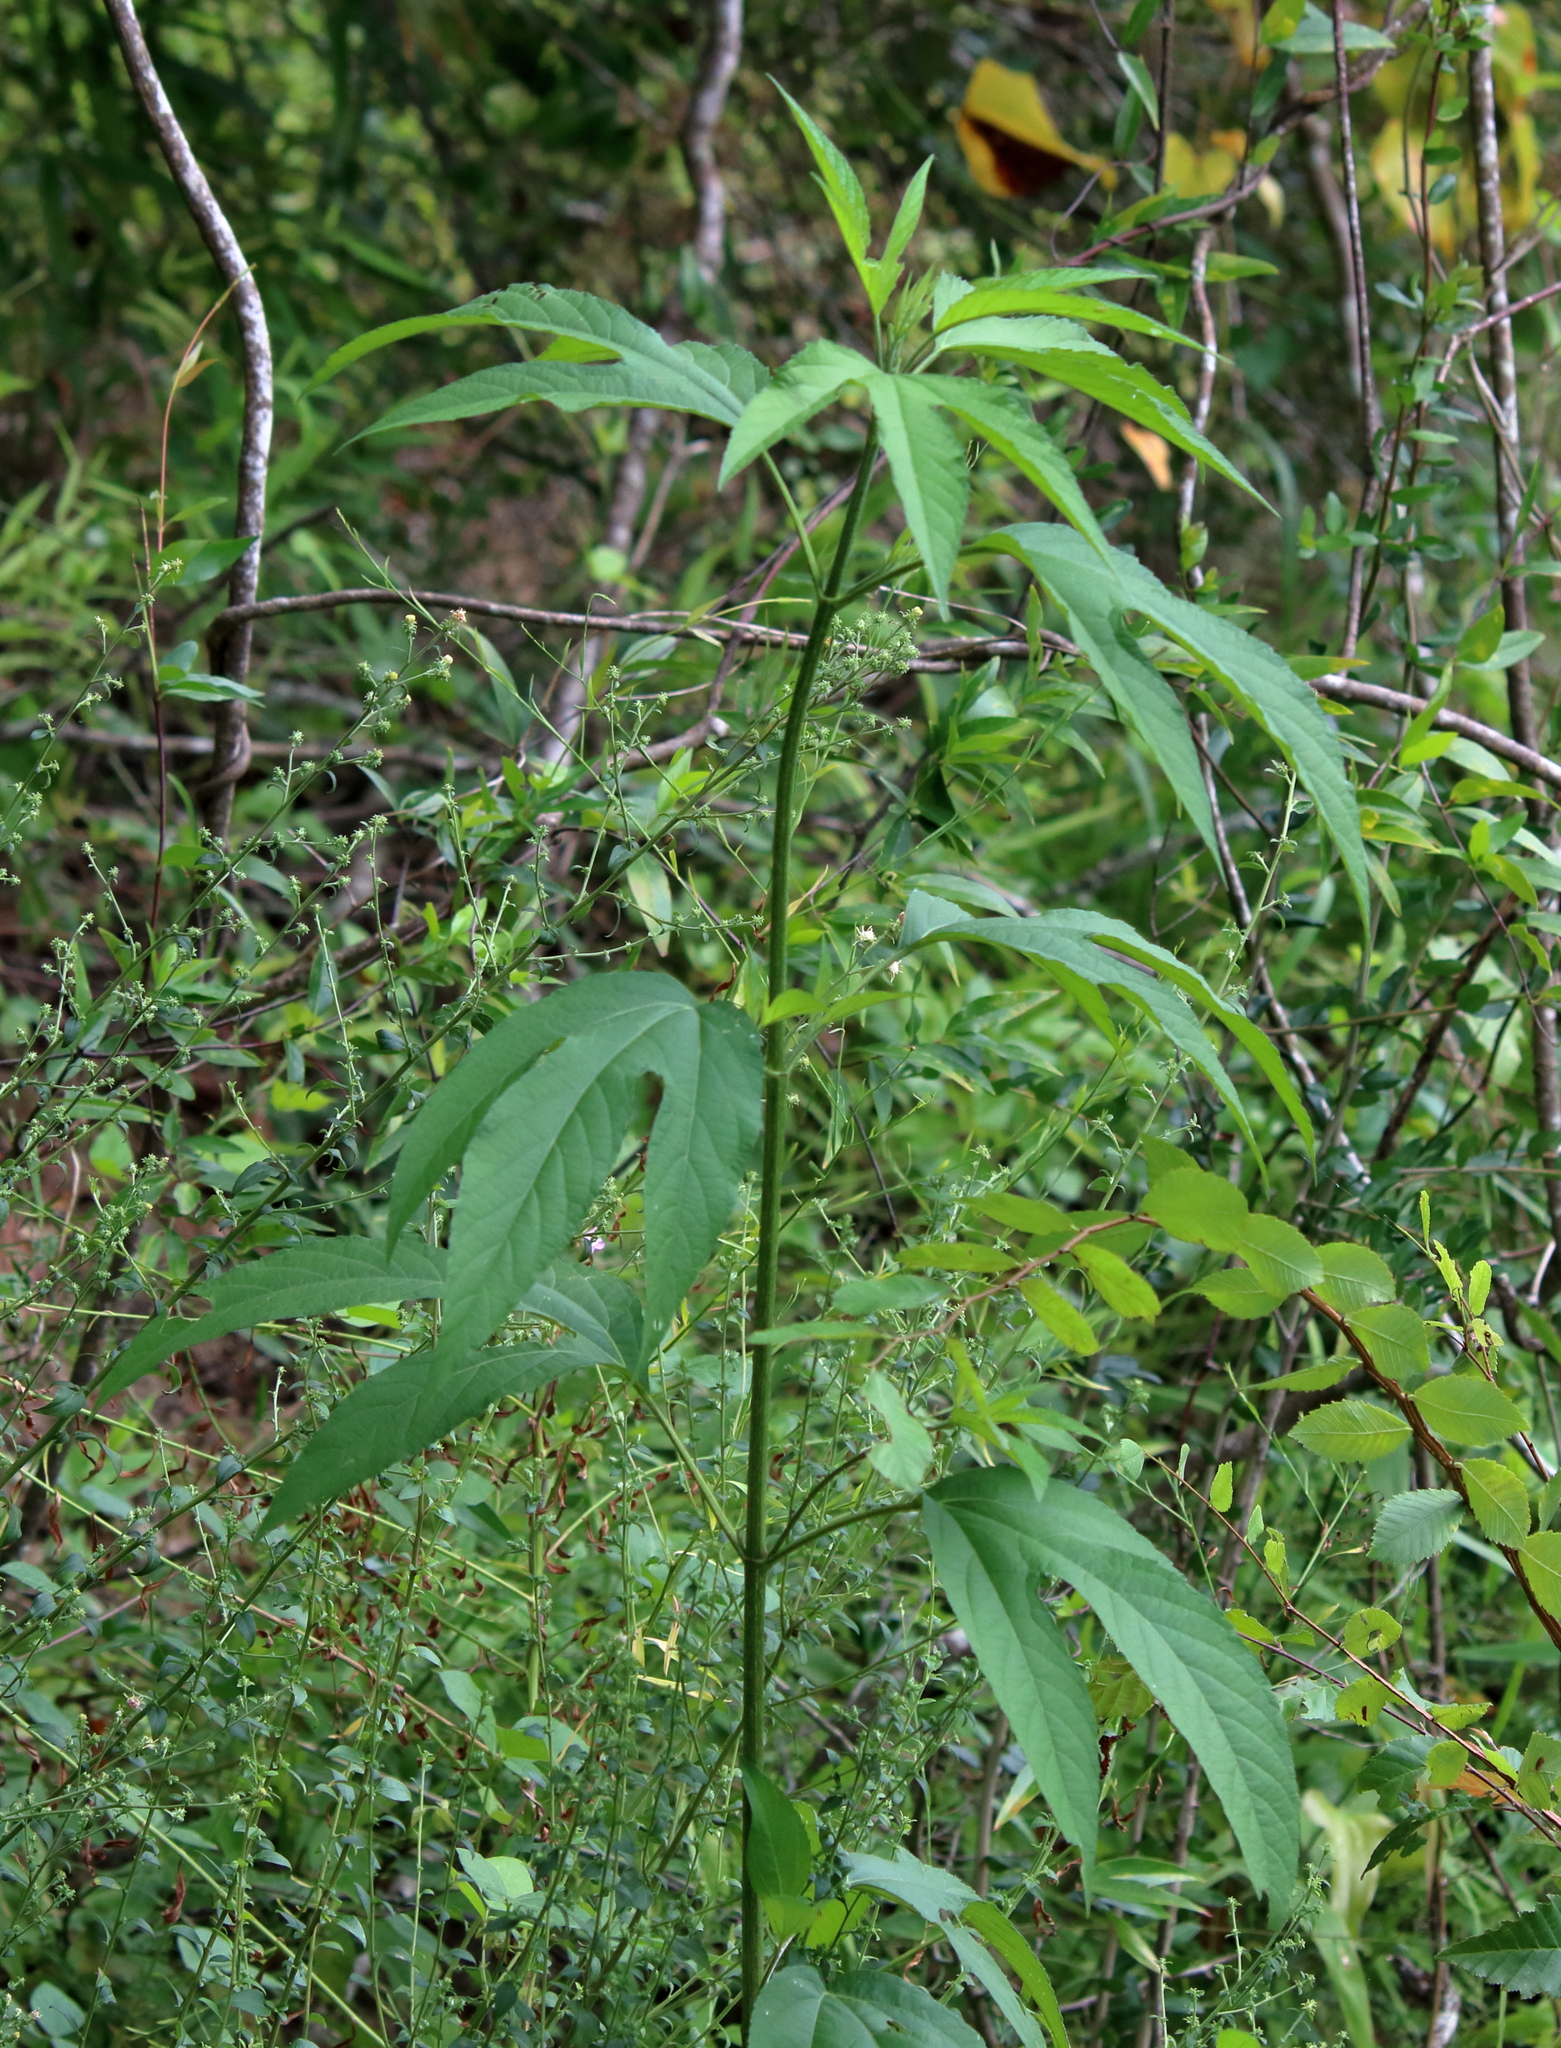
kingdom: Plantae
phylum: Tracheophyta
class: Magnoliopsida
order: Asterales
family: Asteraceae
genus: Ambrosia
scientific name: Ambrosia trifida
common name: Giant ragweed
